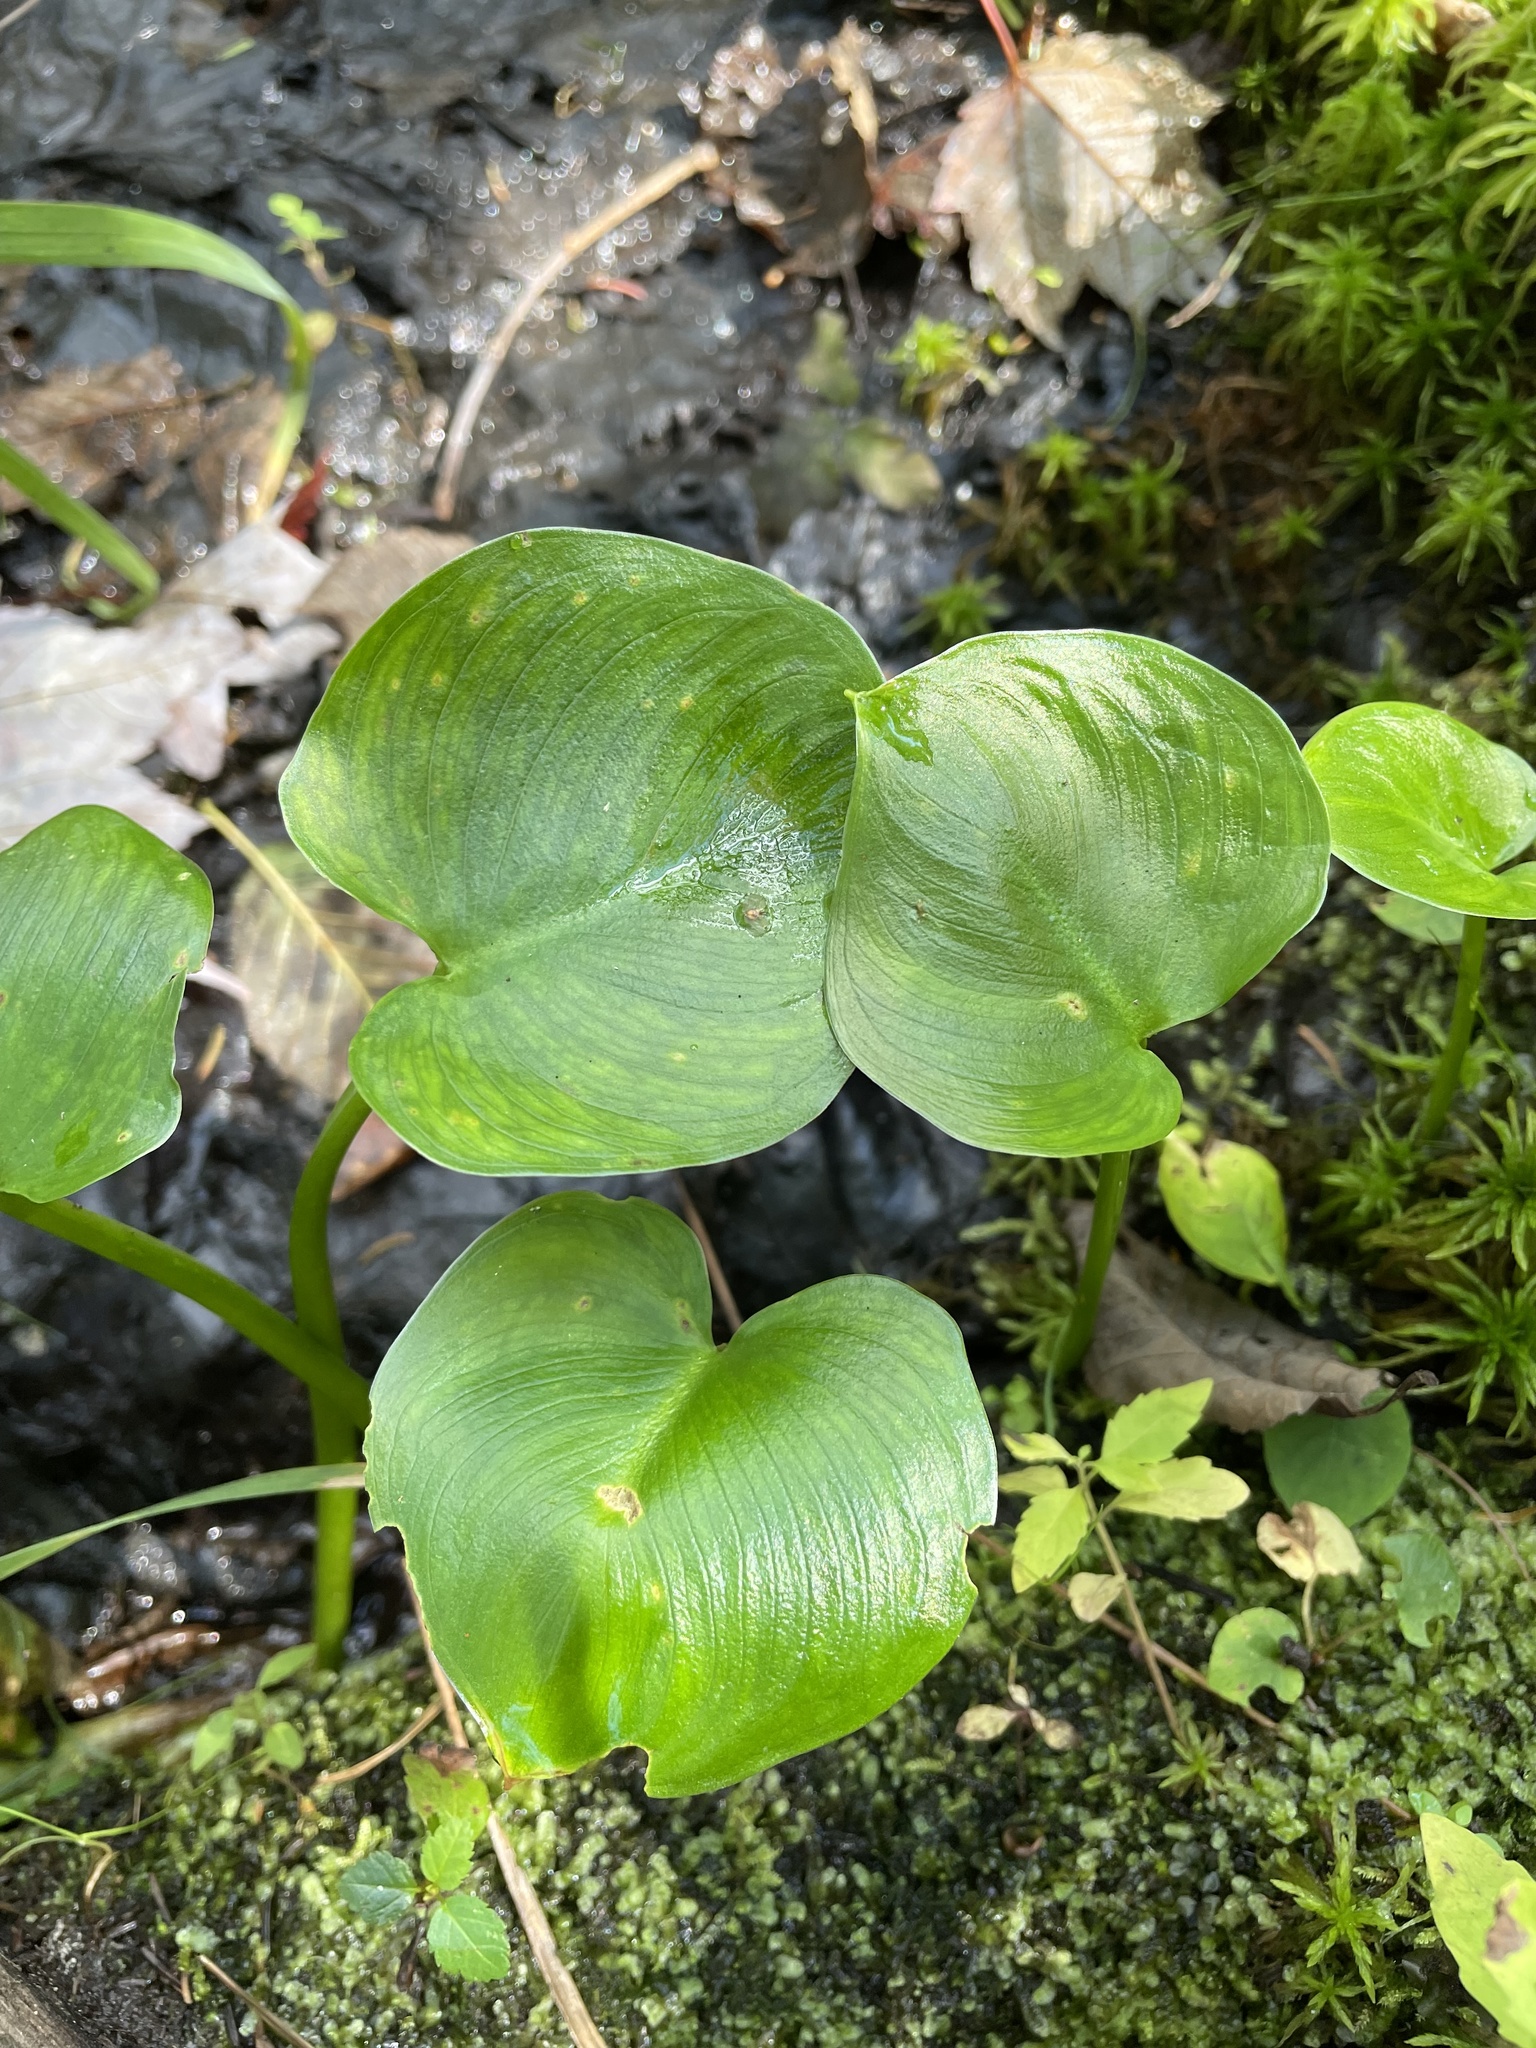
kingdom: Plantae
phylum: Tracheophyta
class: Liliopsida
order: Alismatales
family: Araceae
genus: Calla
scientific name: Calla palustris
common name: Bog arum
